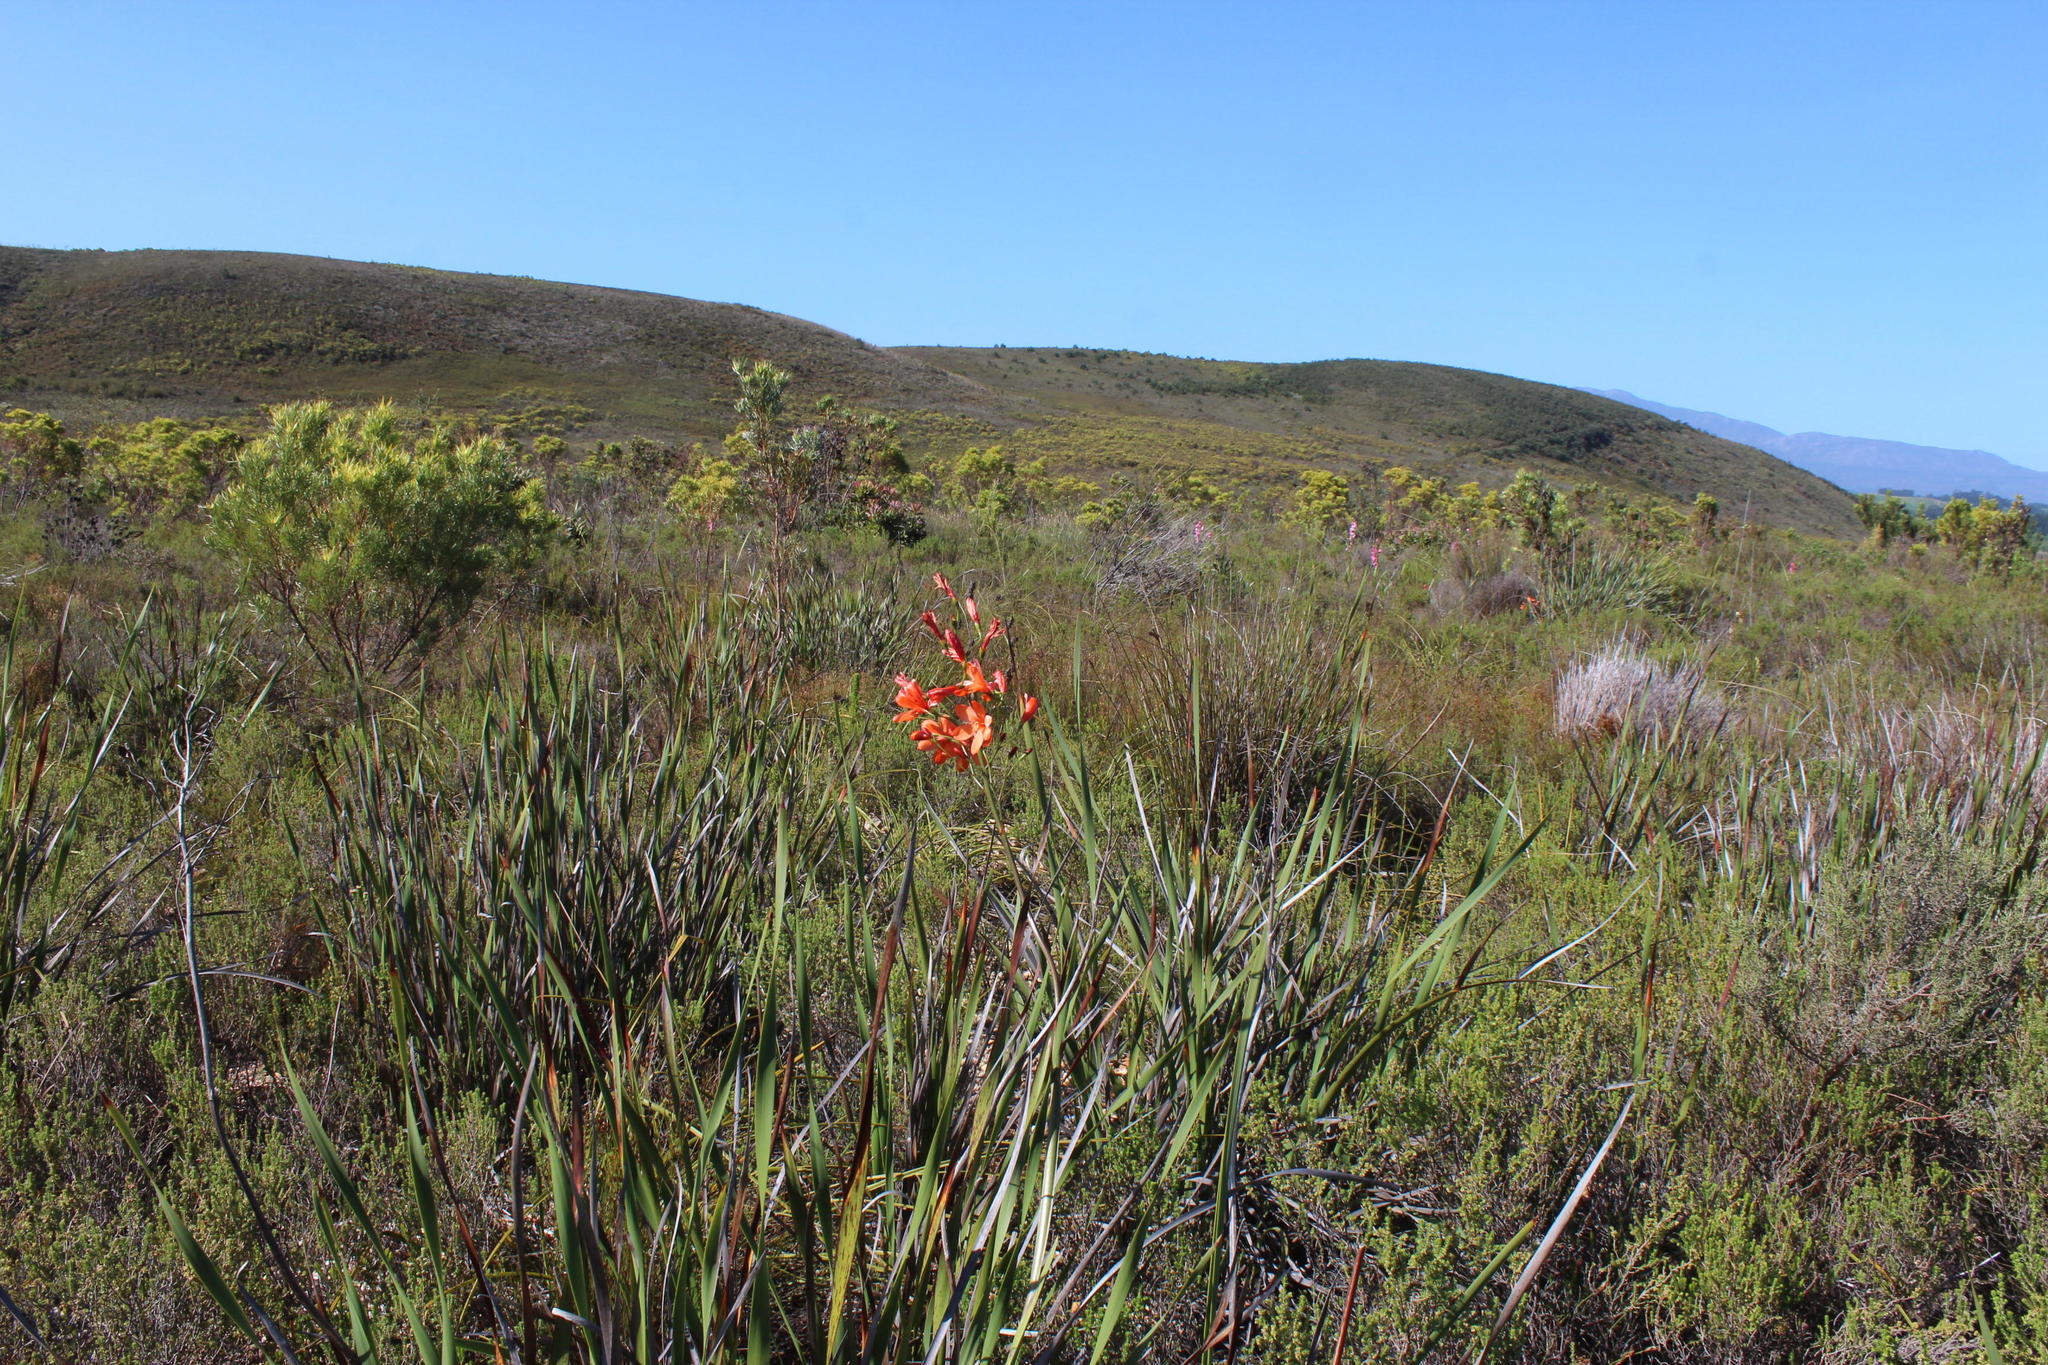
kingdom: Plantae
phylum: Tracheophyta
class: Liliopsida
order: Asparagales
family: Iridaceae
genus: Pillansia
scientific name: Pillansia templemannii
